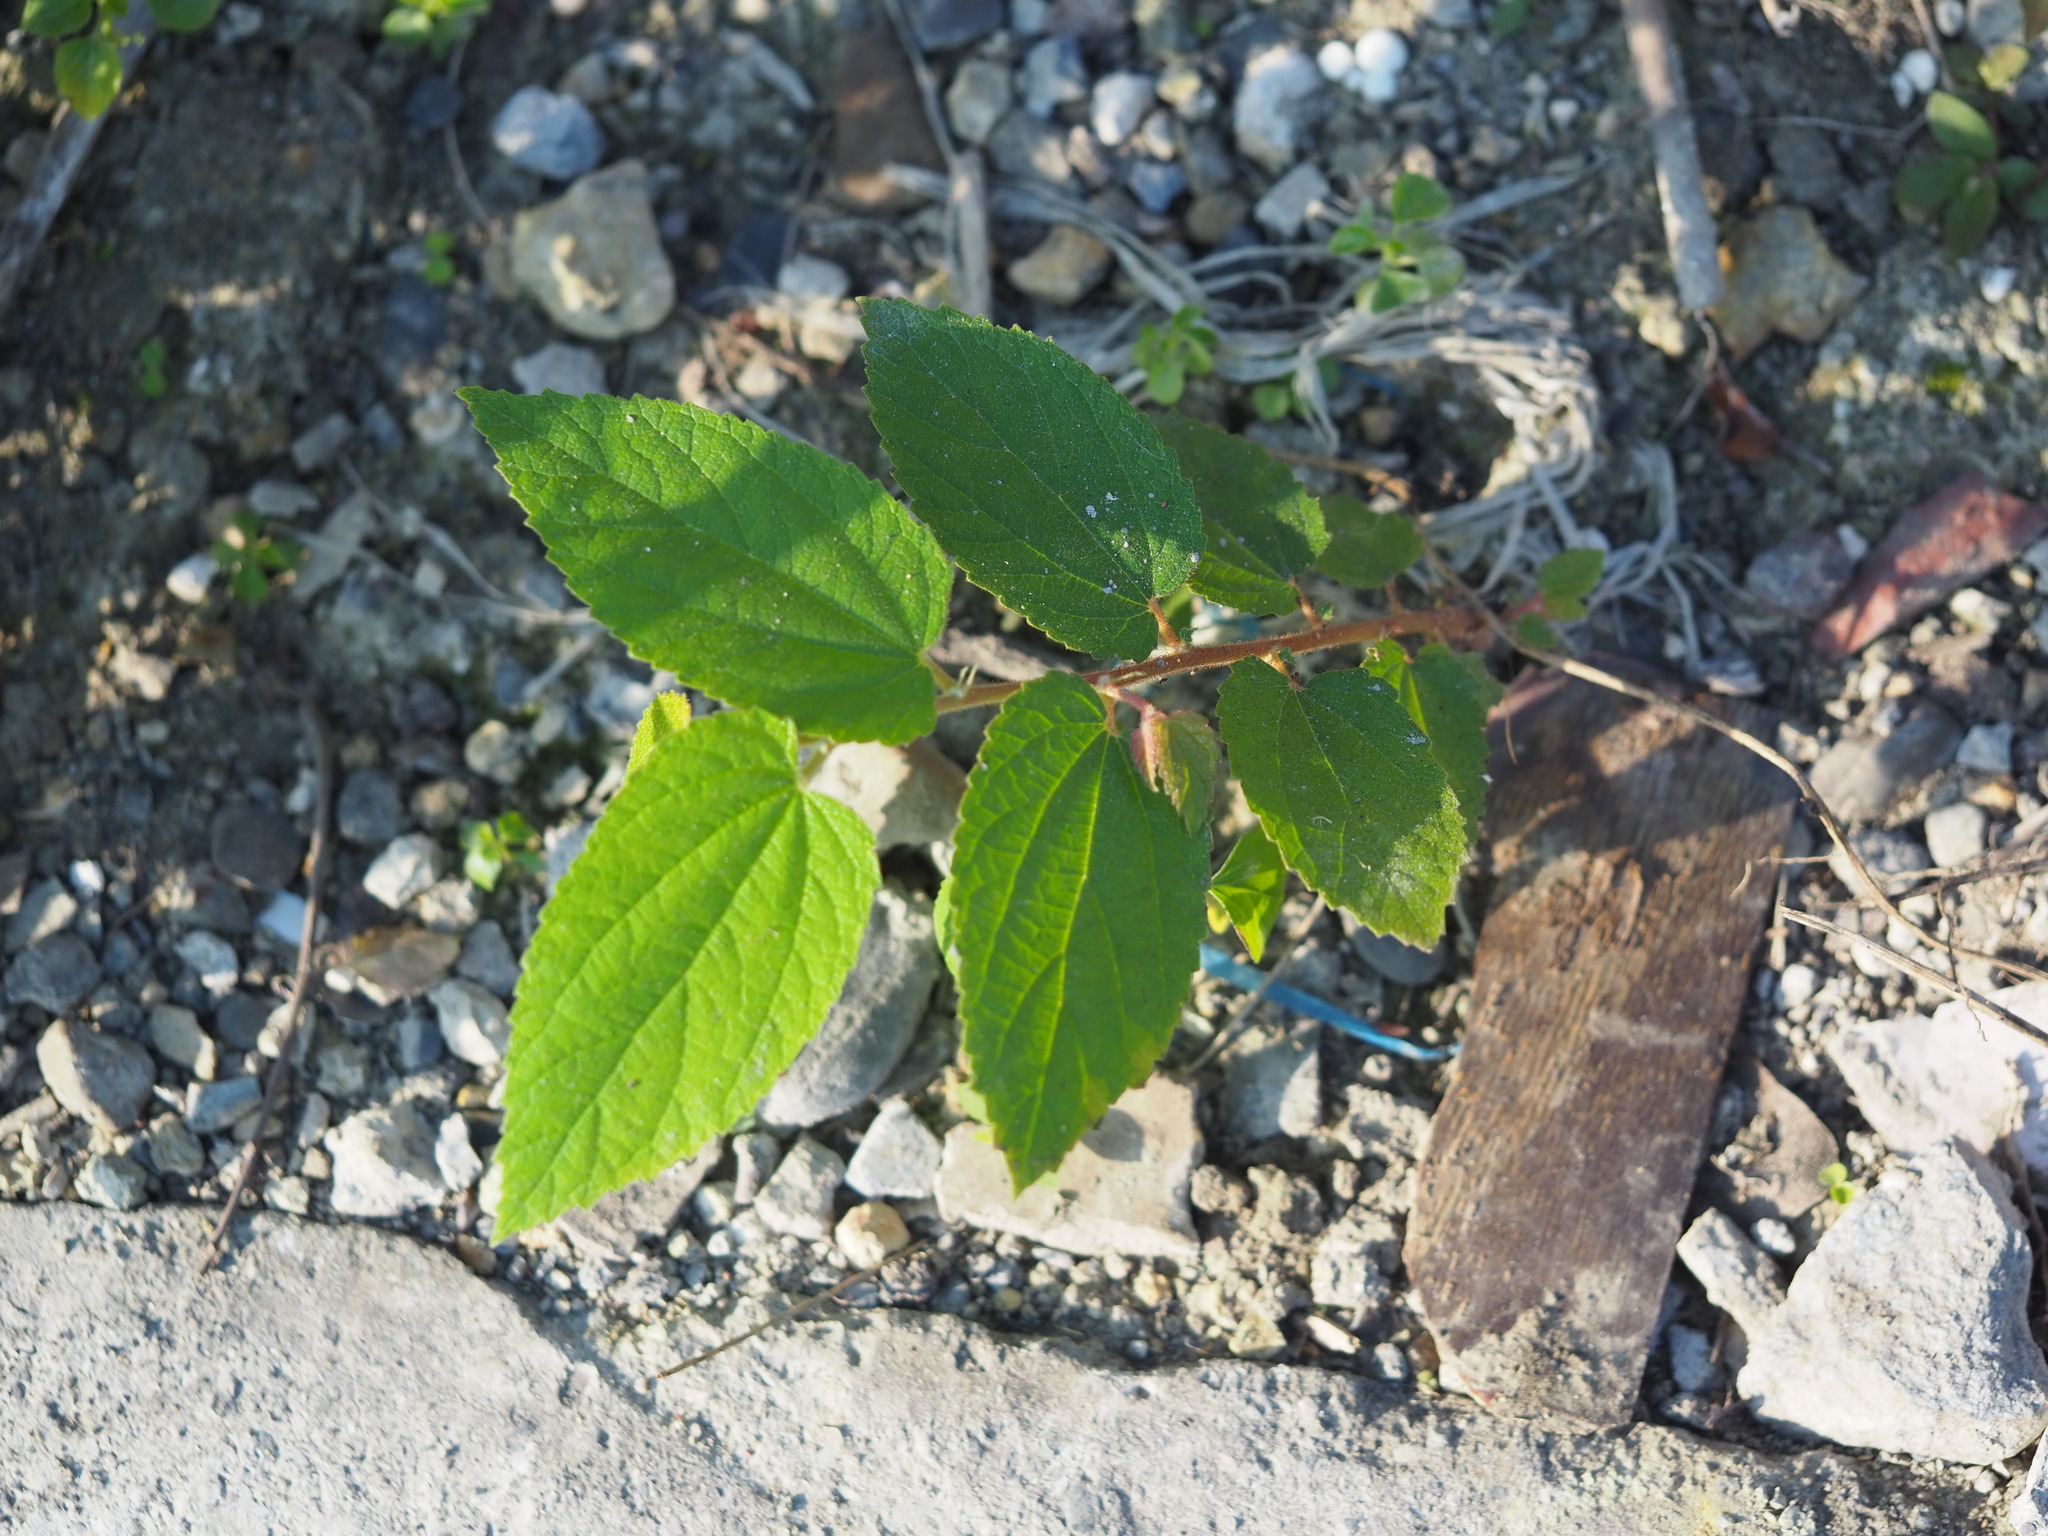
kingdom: Plantae
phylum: Tracheophyta
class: Magnoliopsida
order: Malvales
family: Muntingiaceae
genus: Muntingia
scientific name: Muntingia calabura
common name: Strawberrytree
